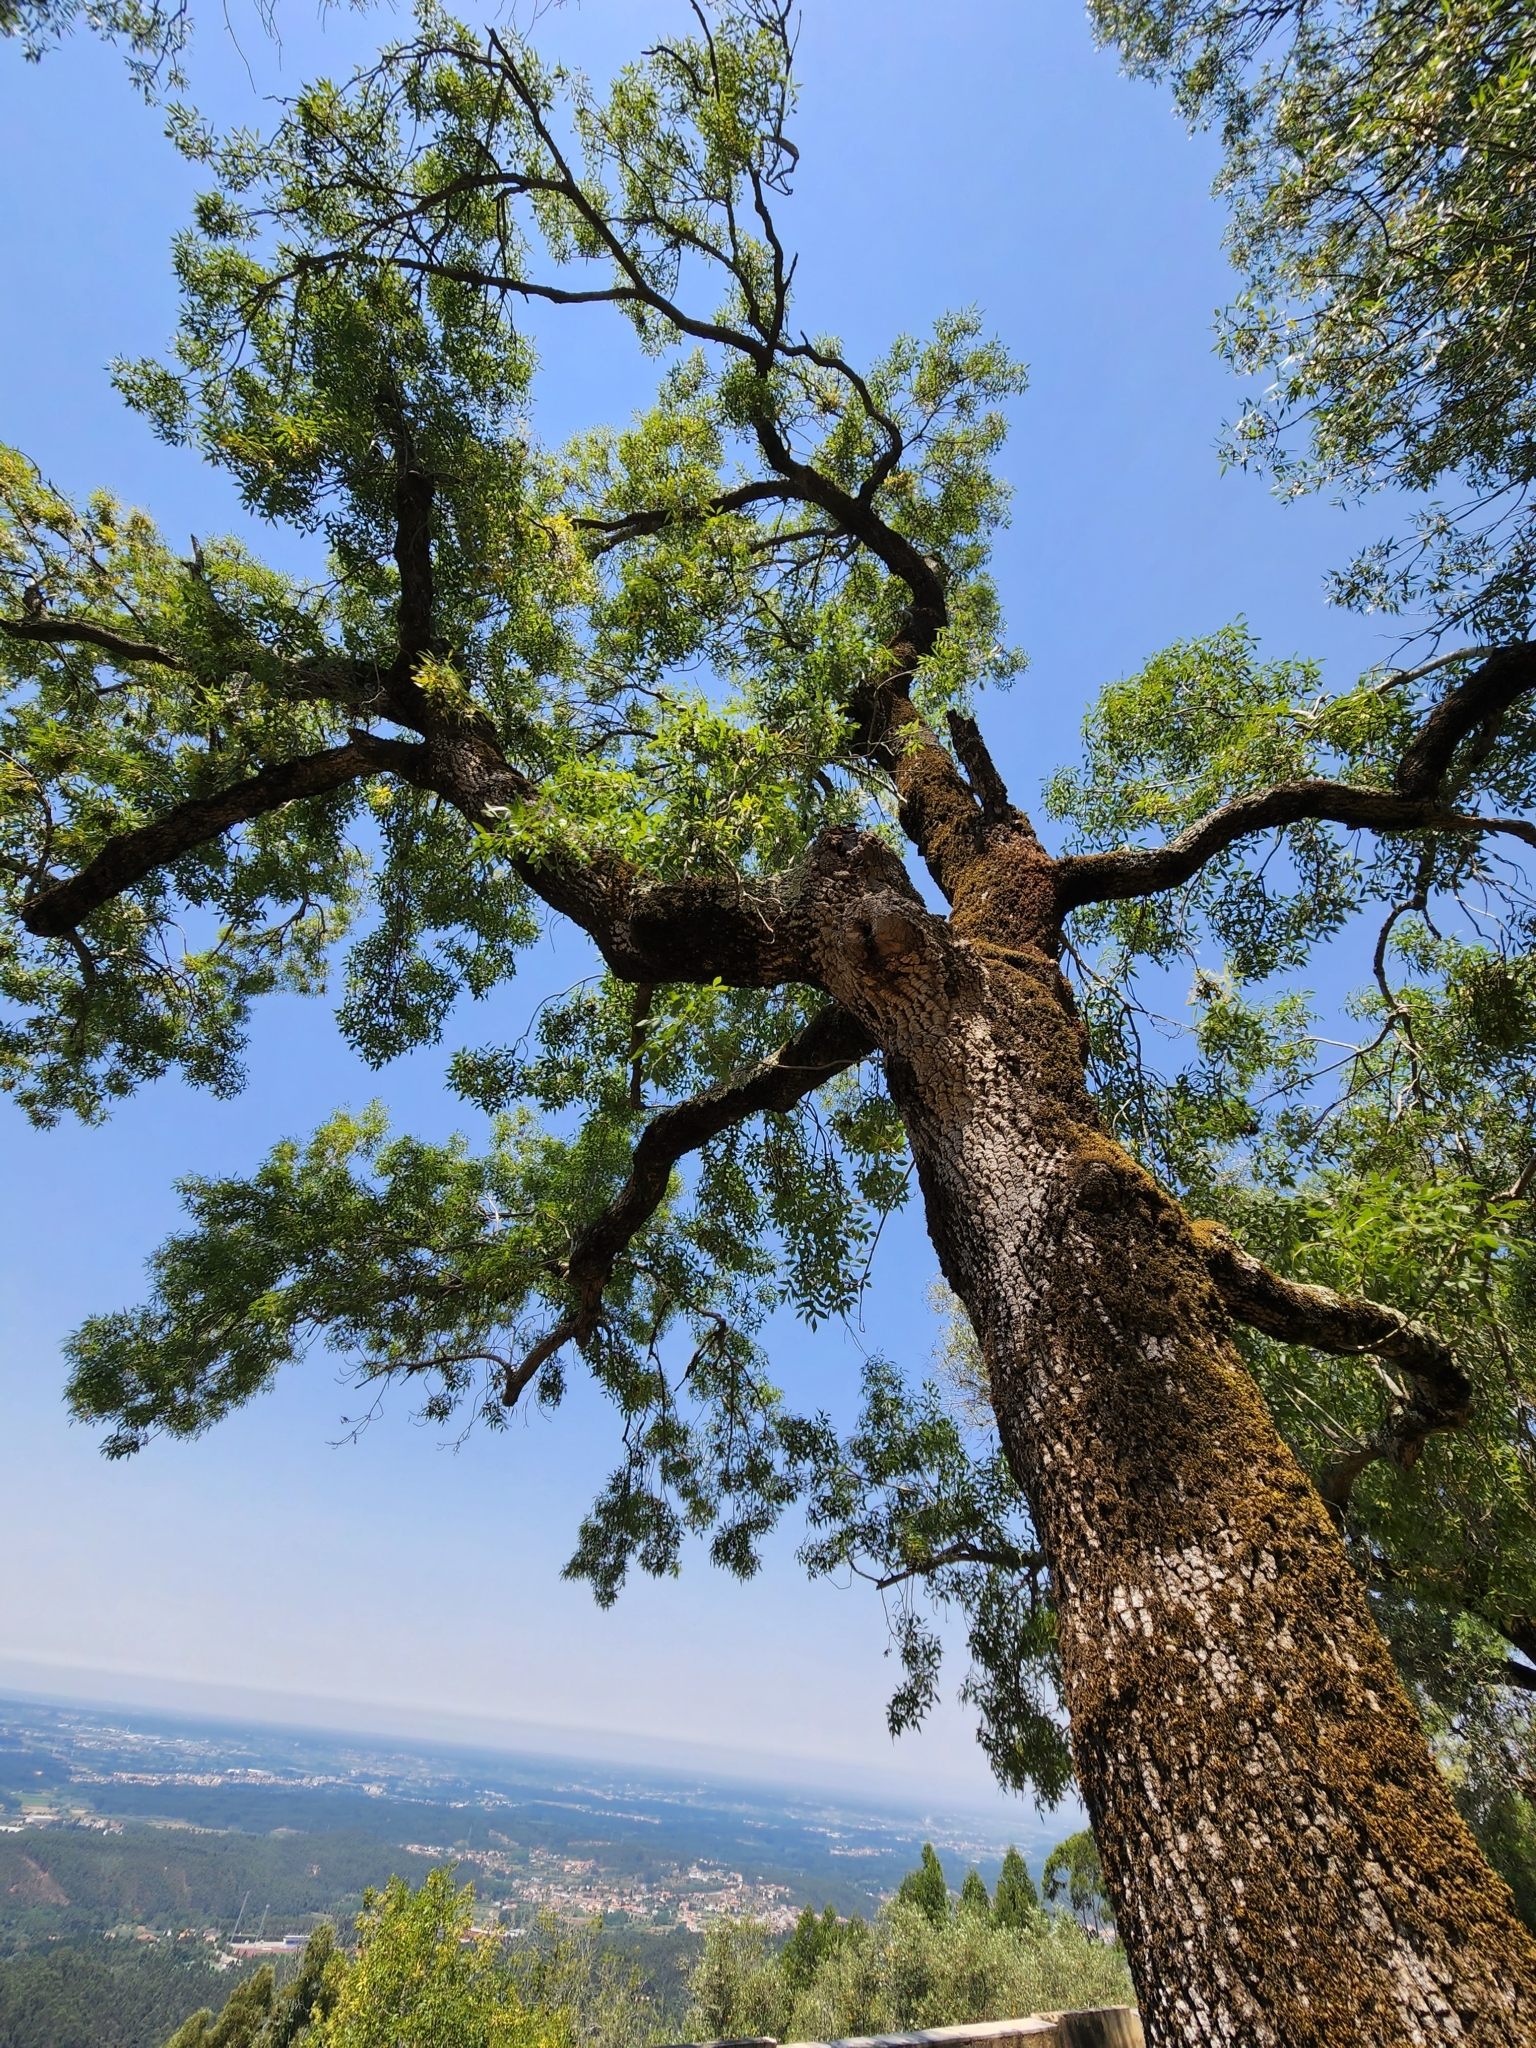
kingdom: Plantae
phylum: Tracheophyta
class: Magnoliopsida
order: Lamiales
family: Oleaceae
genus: Fraxinus
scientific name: Fraxinus angustifolia
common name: Narrow-leafed ash
